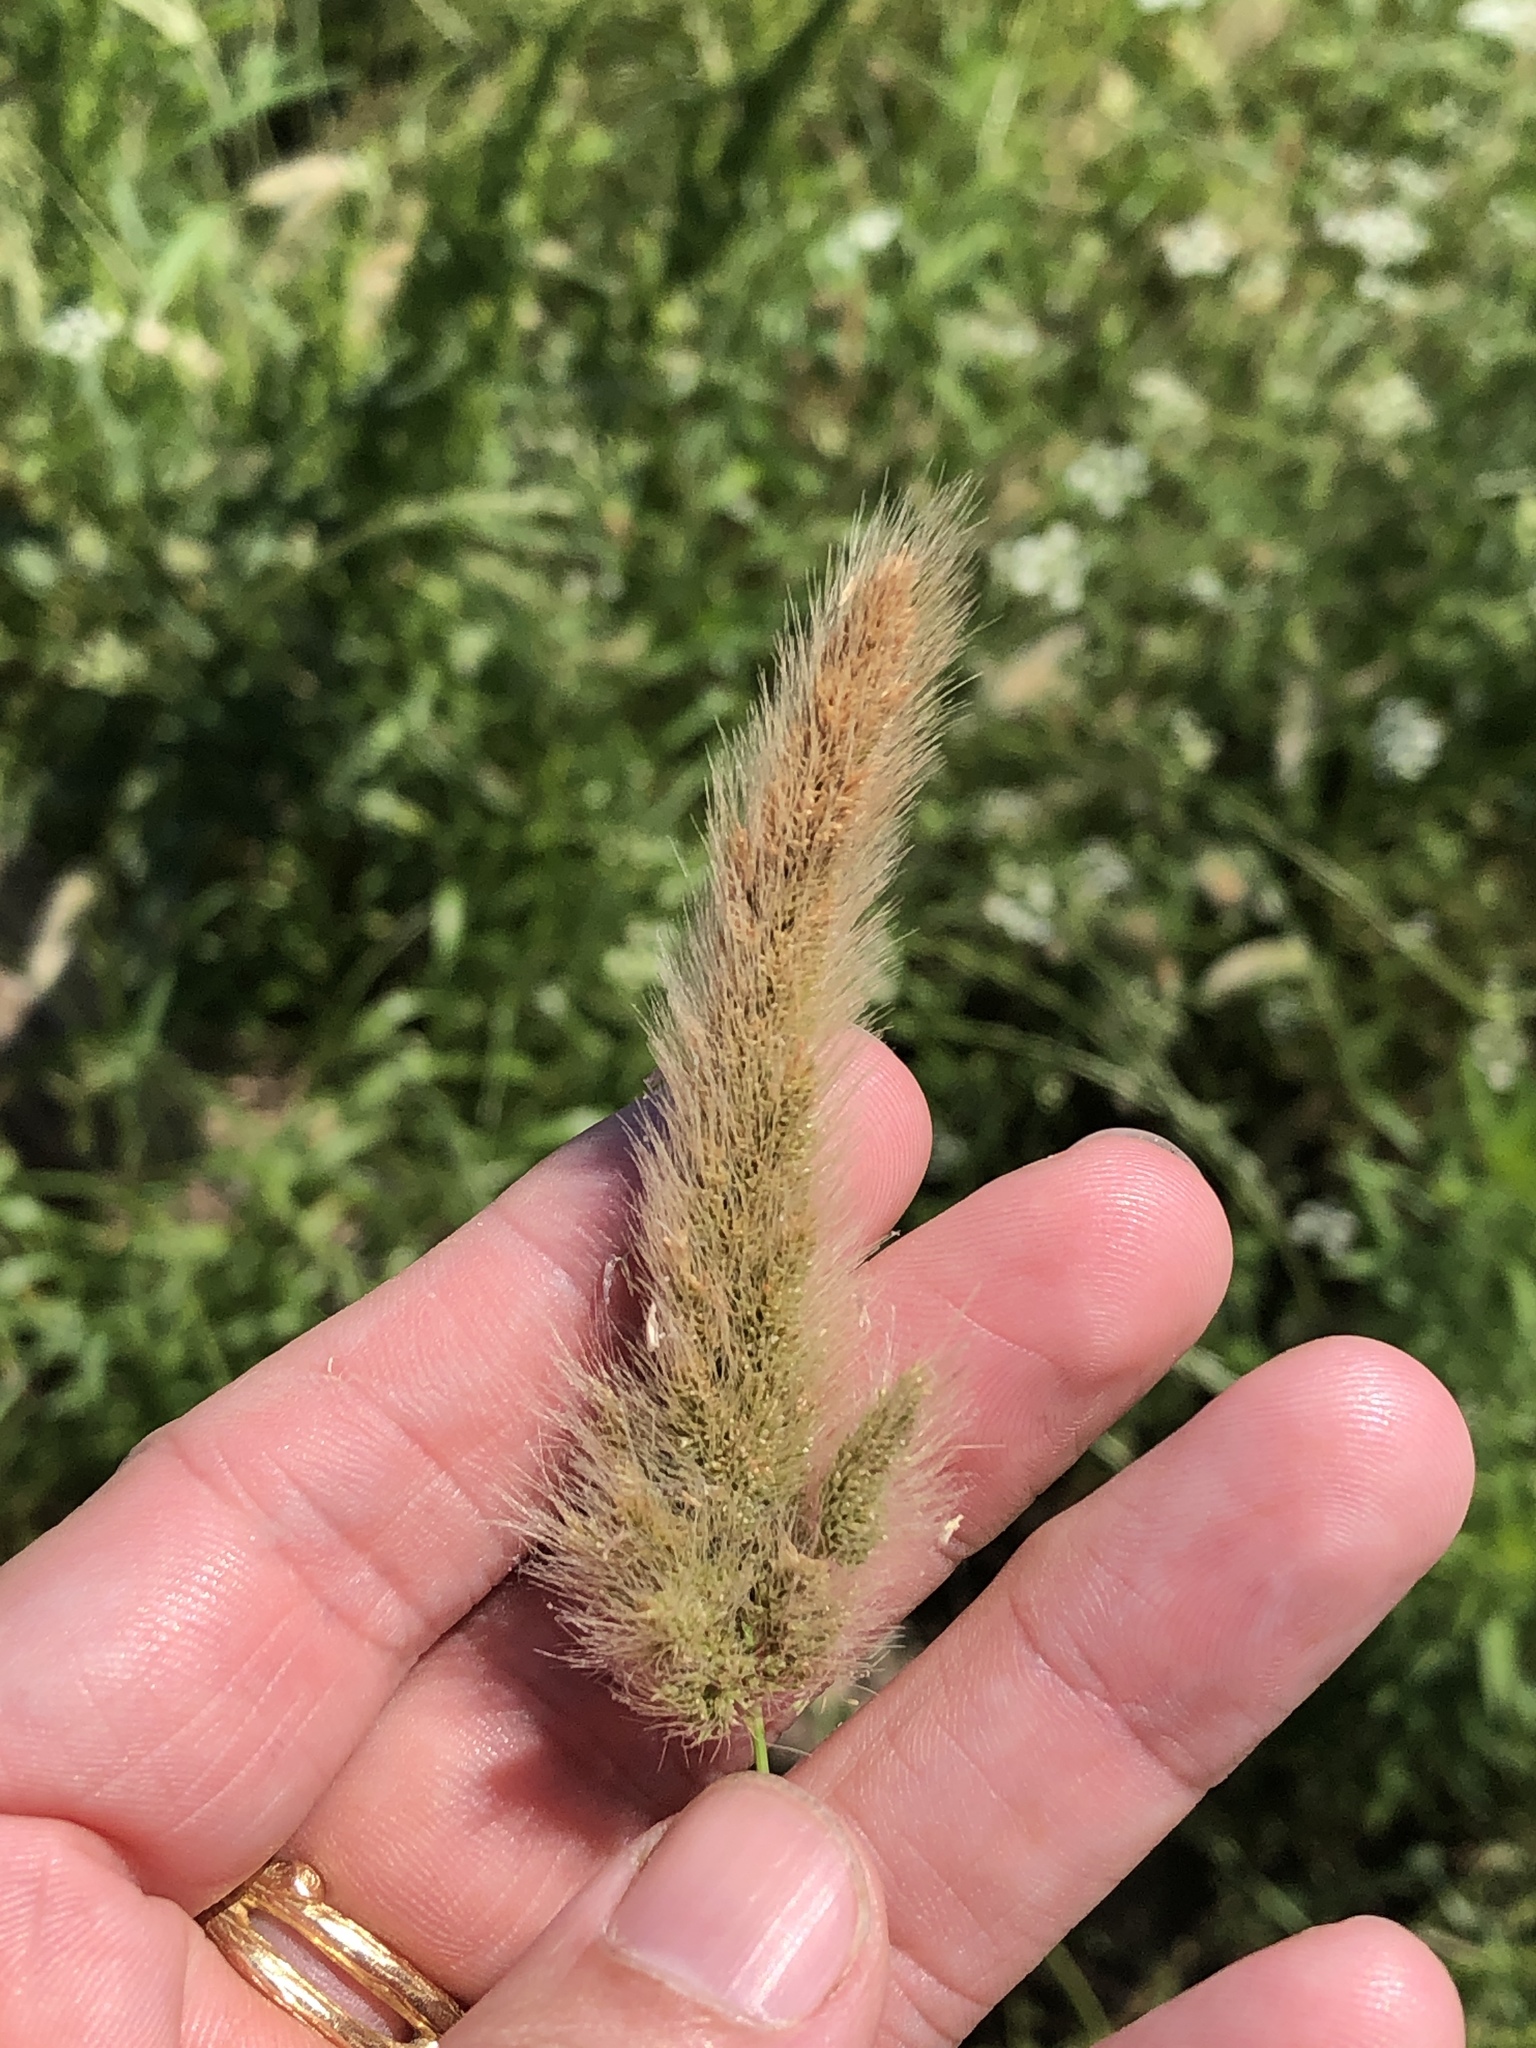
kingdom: Plantae
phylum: Tracheophyta
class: Liliopsida
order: Poales
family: Poaceae
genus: Polypogon
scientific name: Polypogon monspeliensis
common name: Annual rabbitsfoot grass
